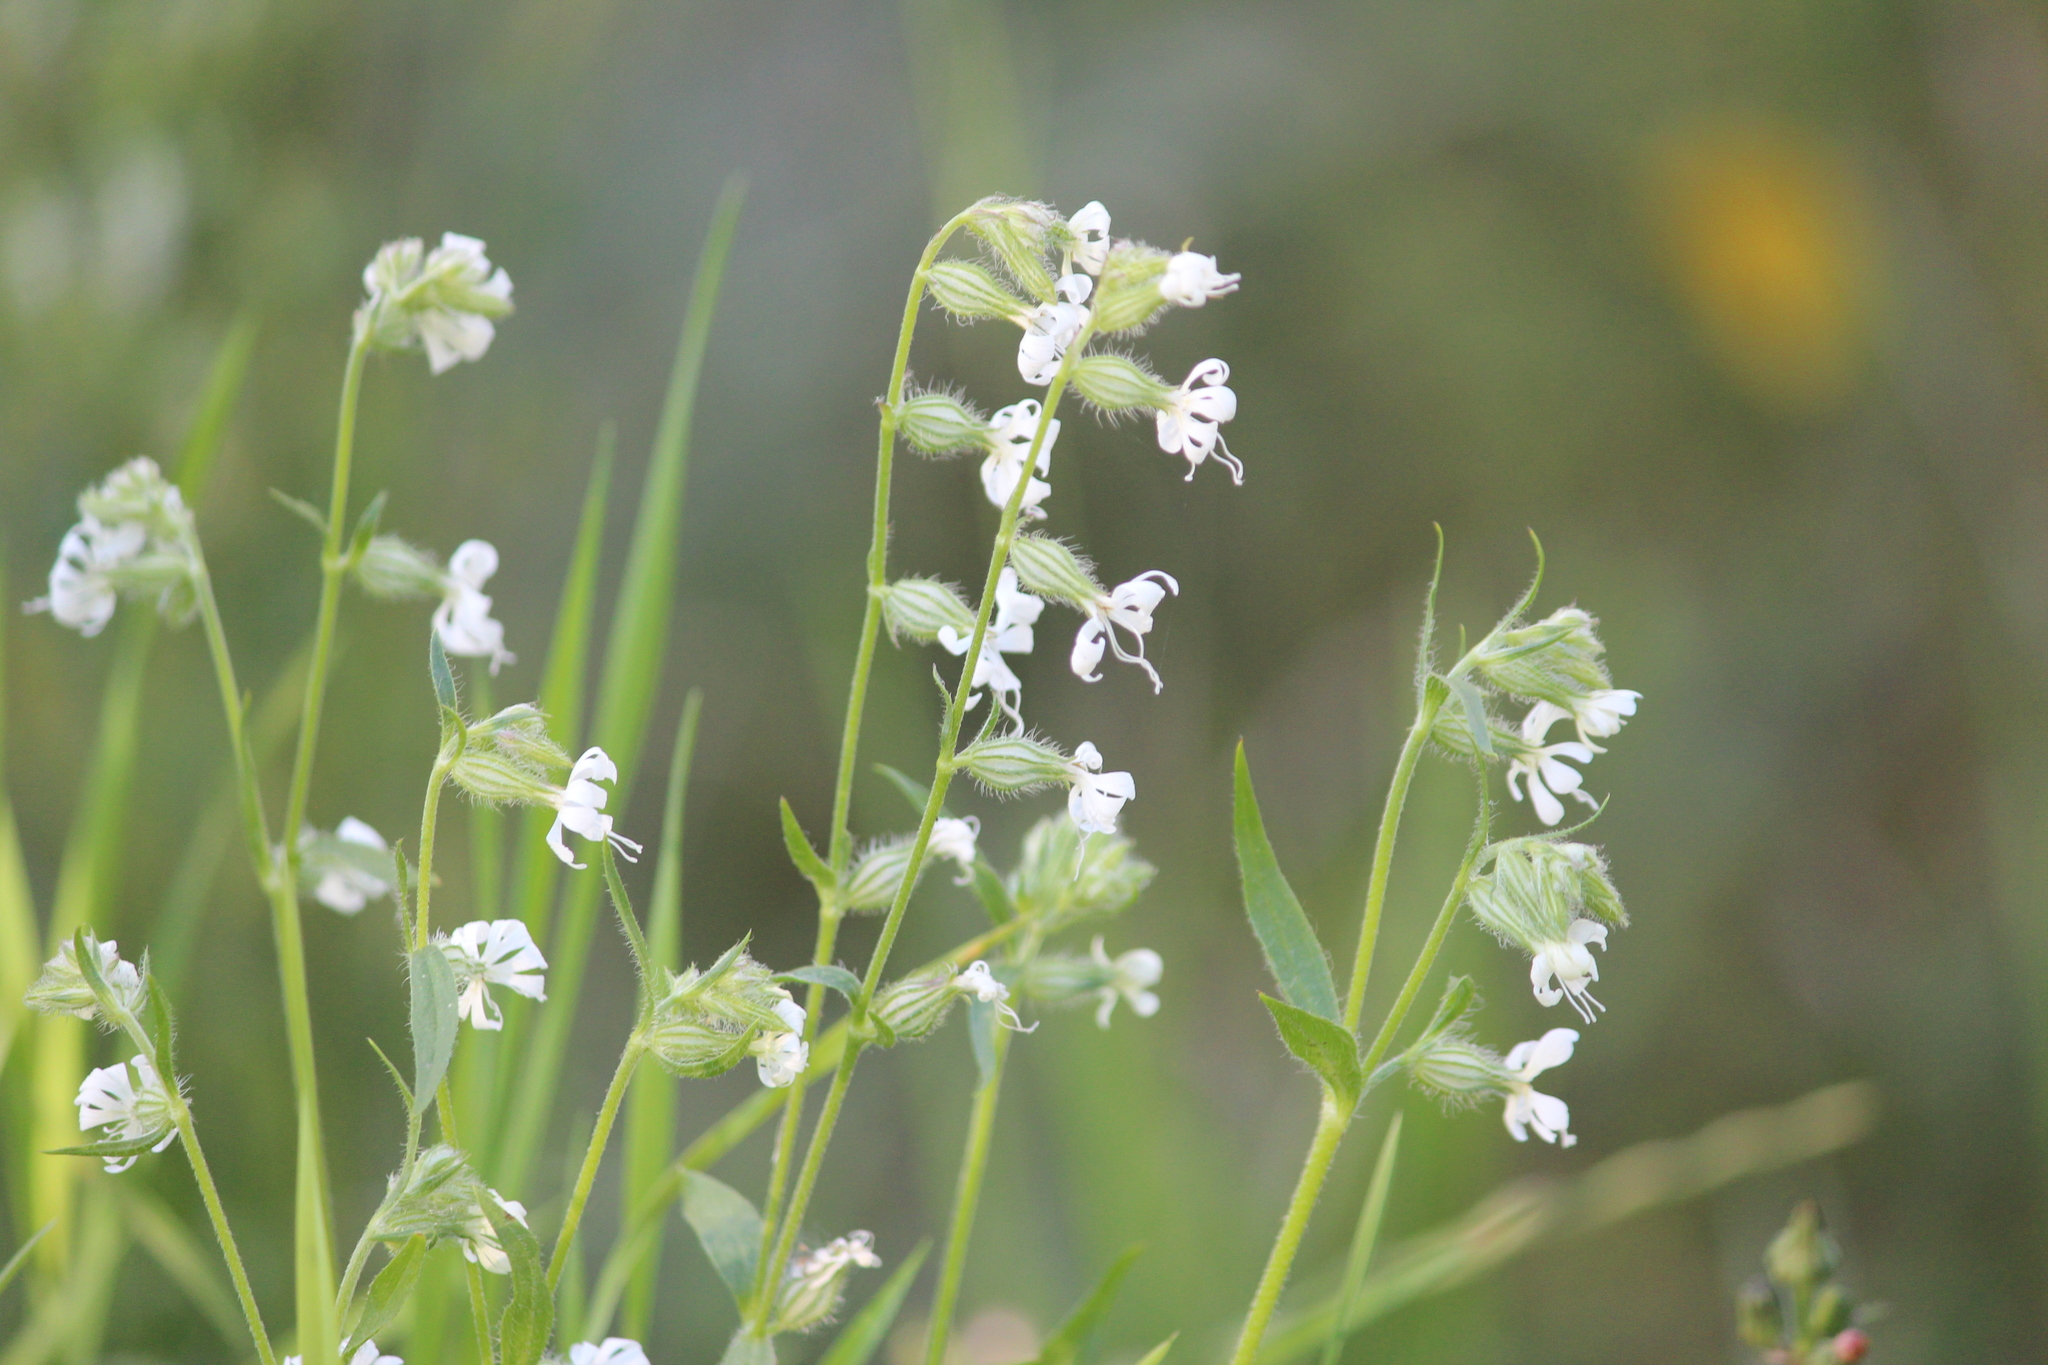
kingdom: Plantae
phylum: Tracheophyta
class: Magnoliopsida
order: Caryophyllales
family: Caryophyllaceae
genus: Silene
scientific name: Silene dichotoma
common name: Forked catchfly
